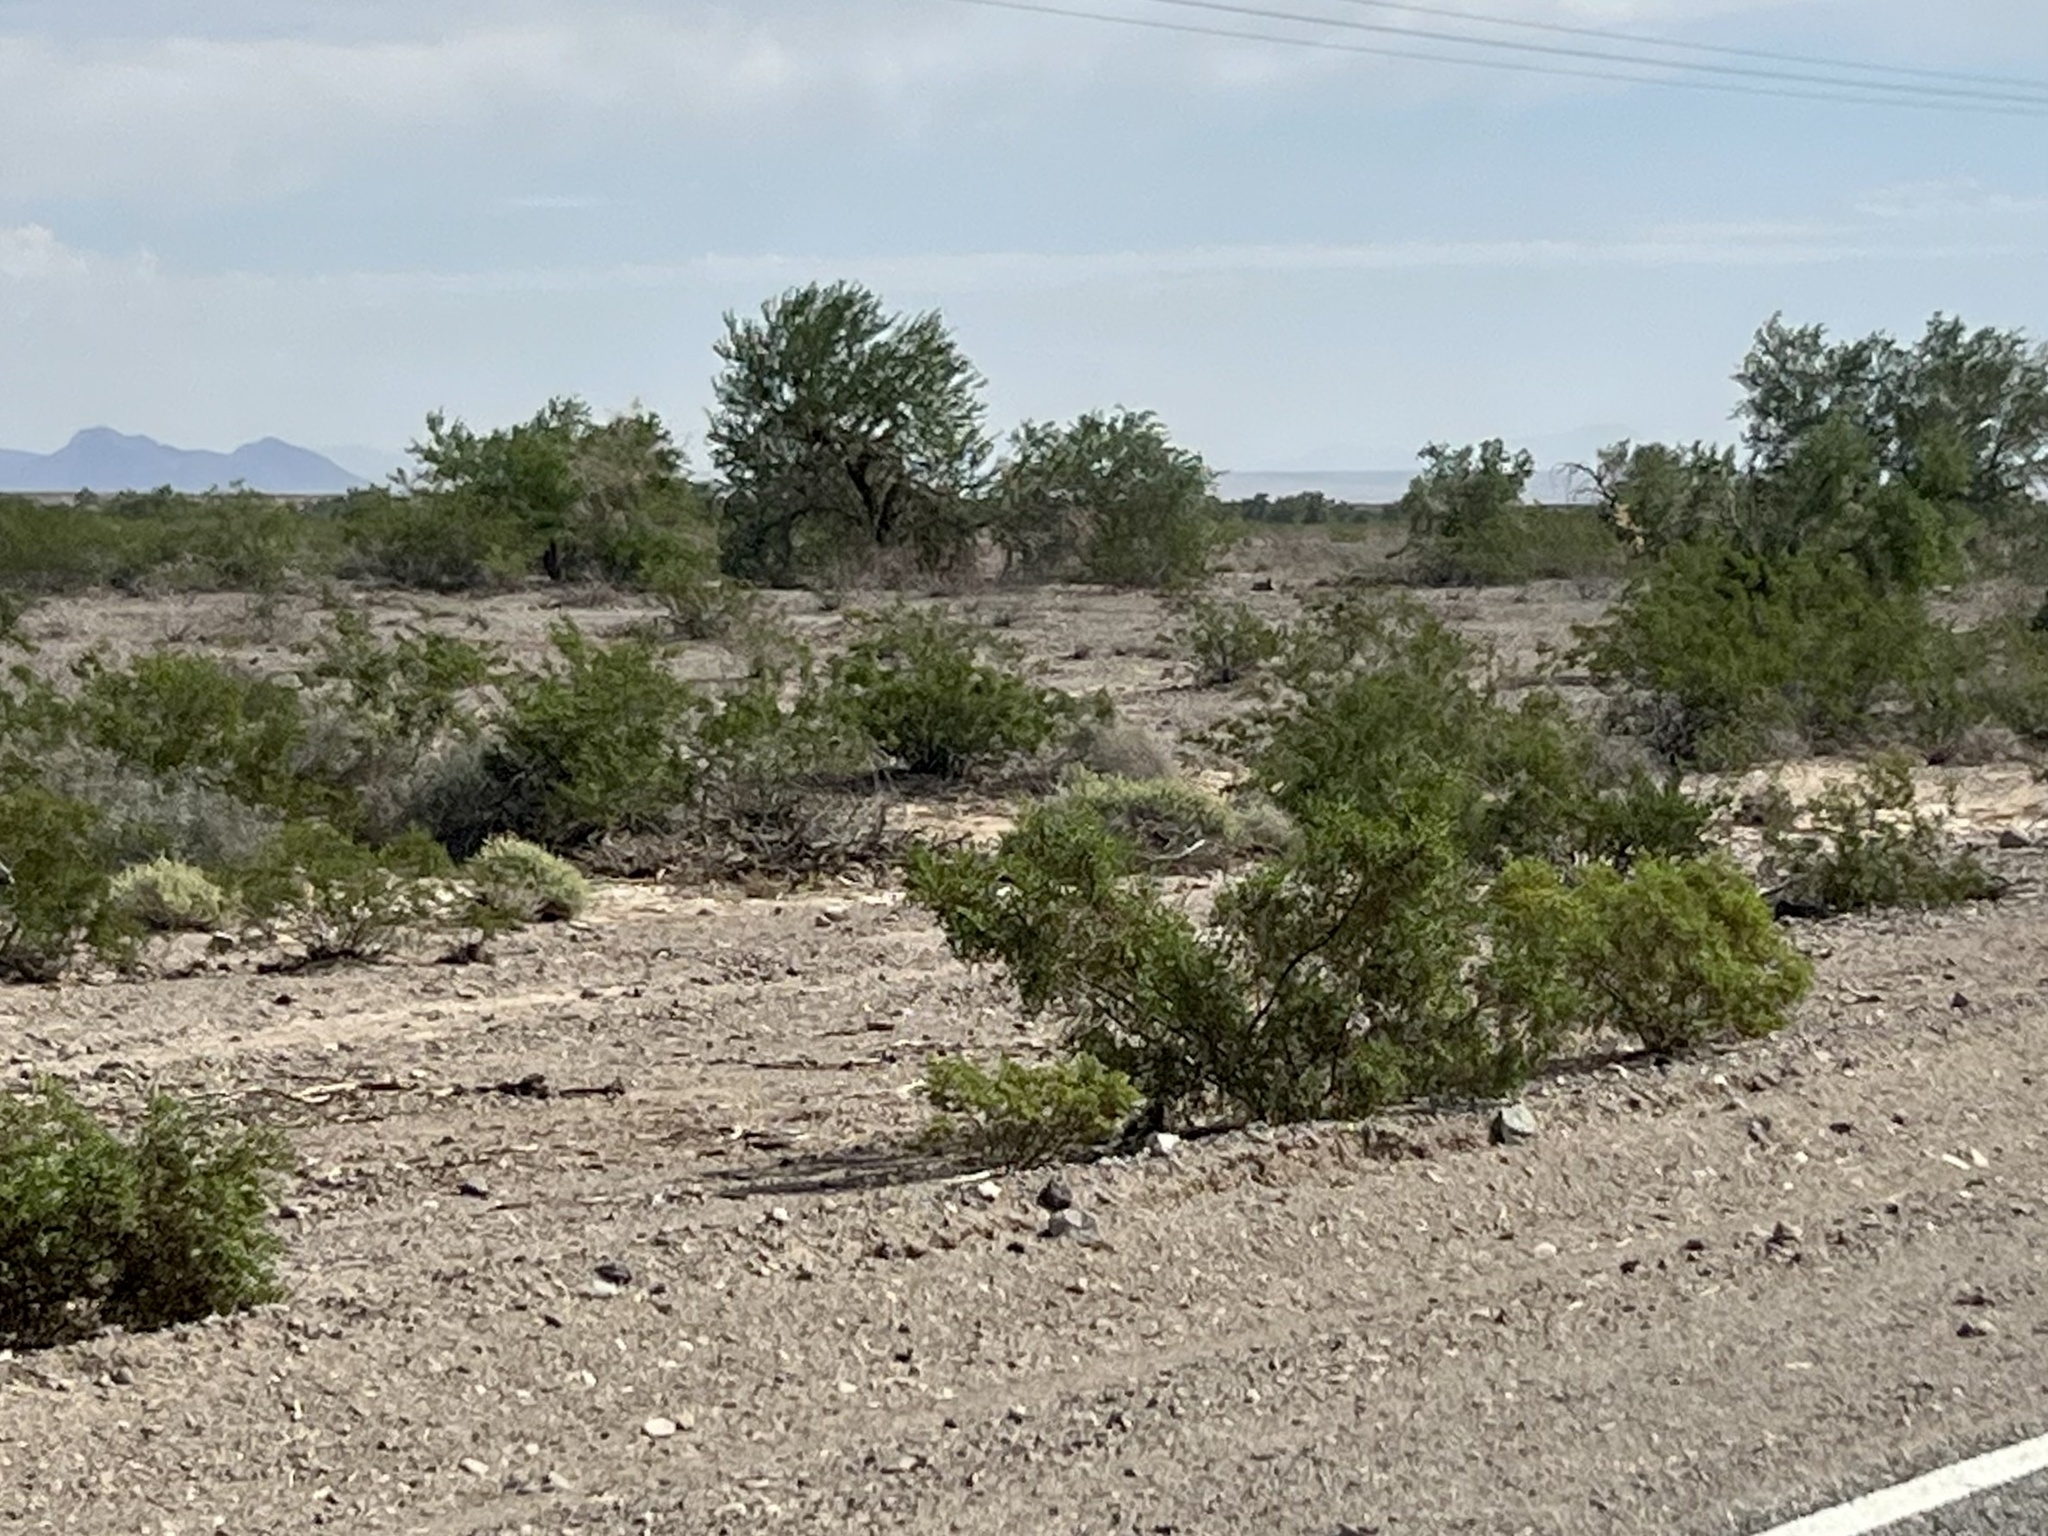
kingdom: Plantae
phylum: Tracheophyta
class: Magnoliopsida
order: Zygophyllales
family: Zygophyllaceae
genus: Larrea
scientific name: Larrea tridentata
